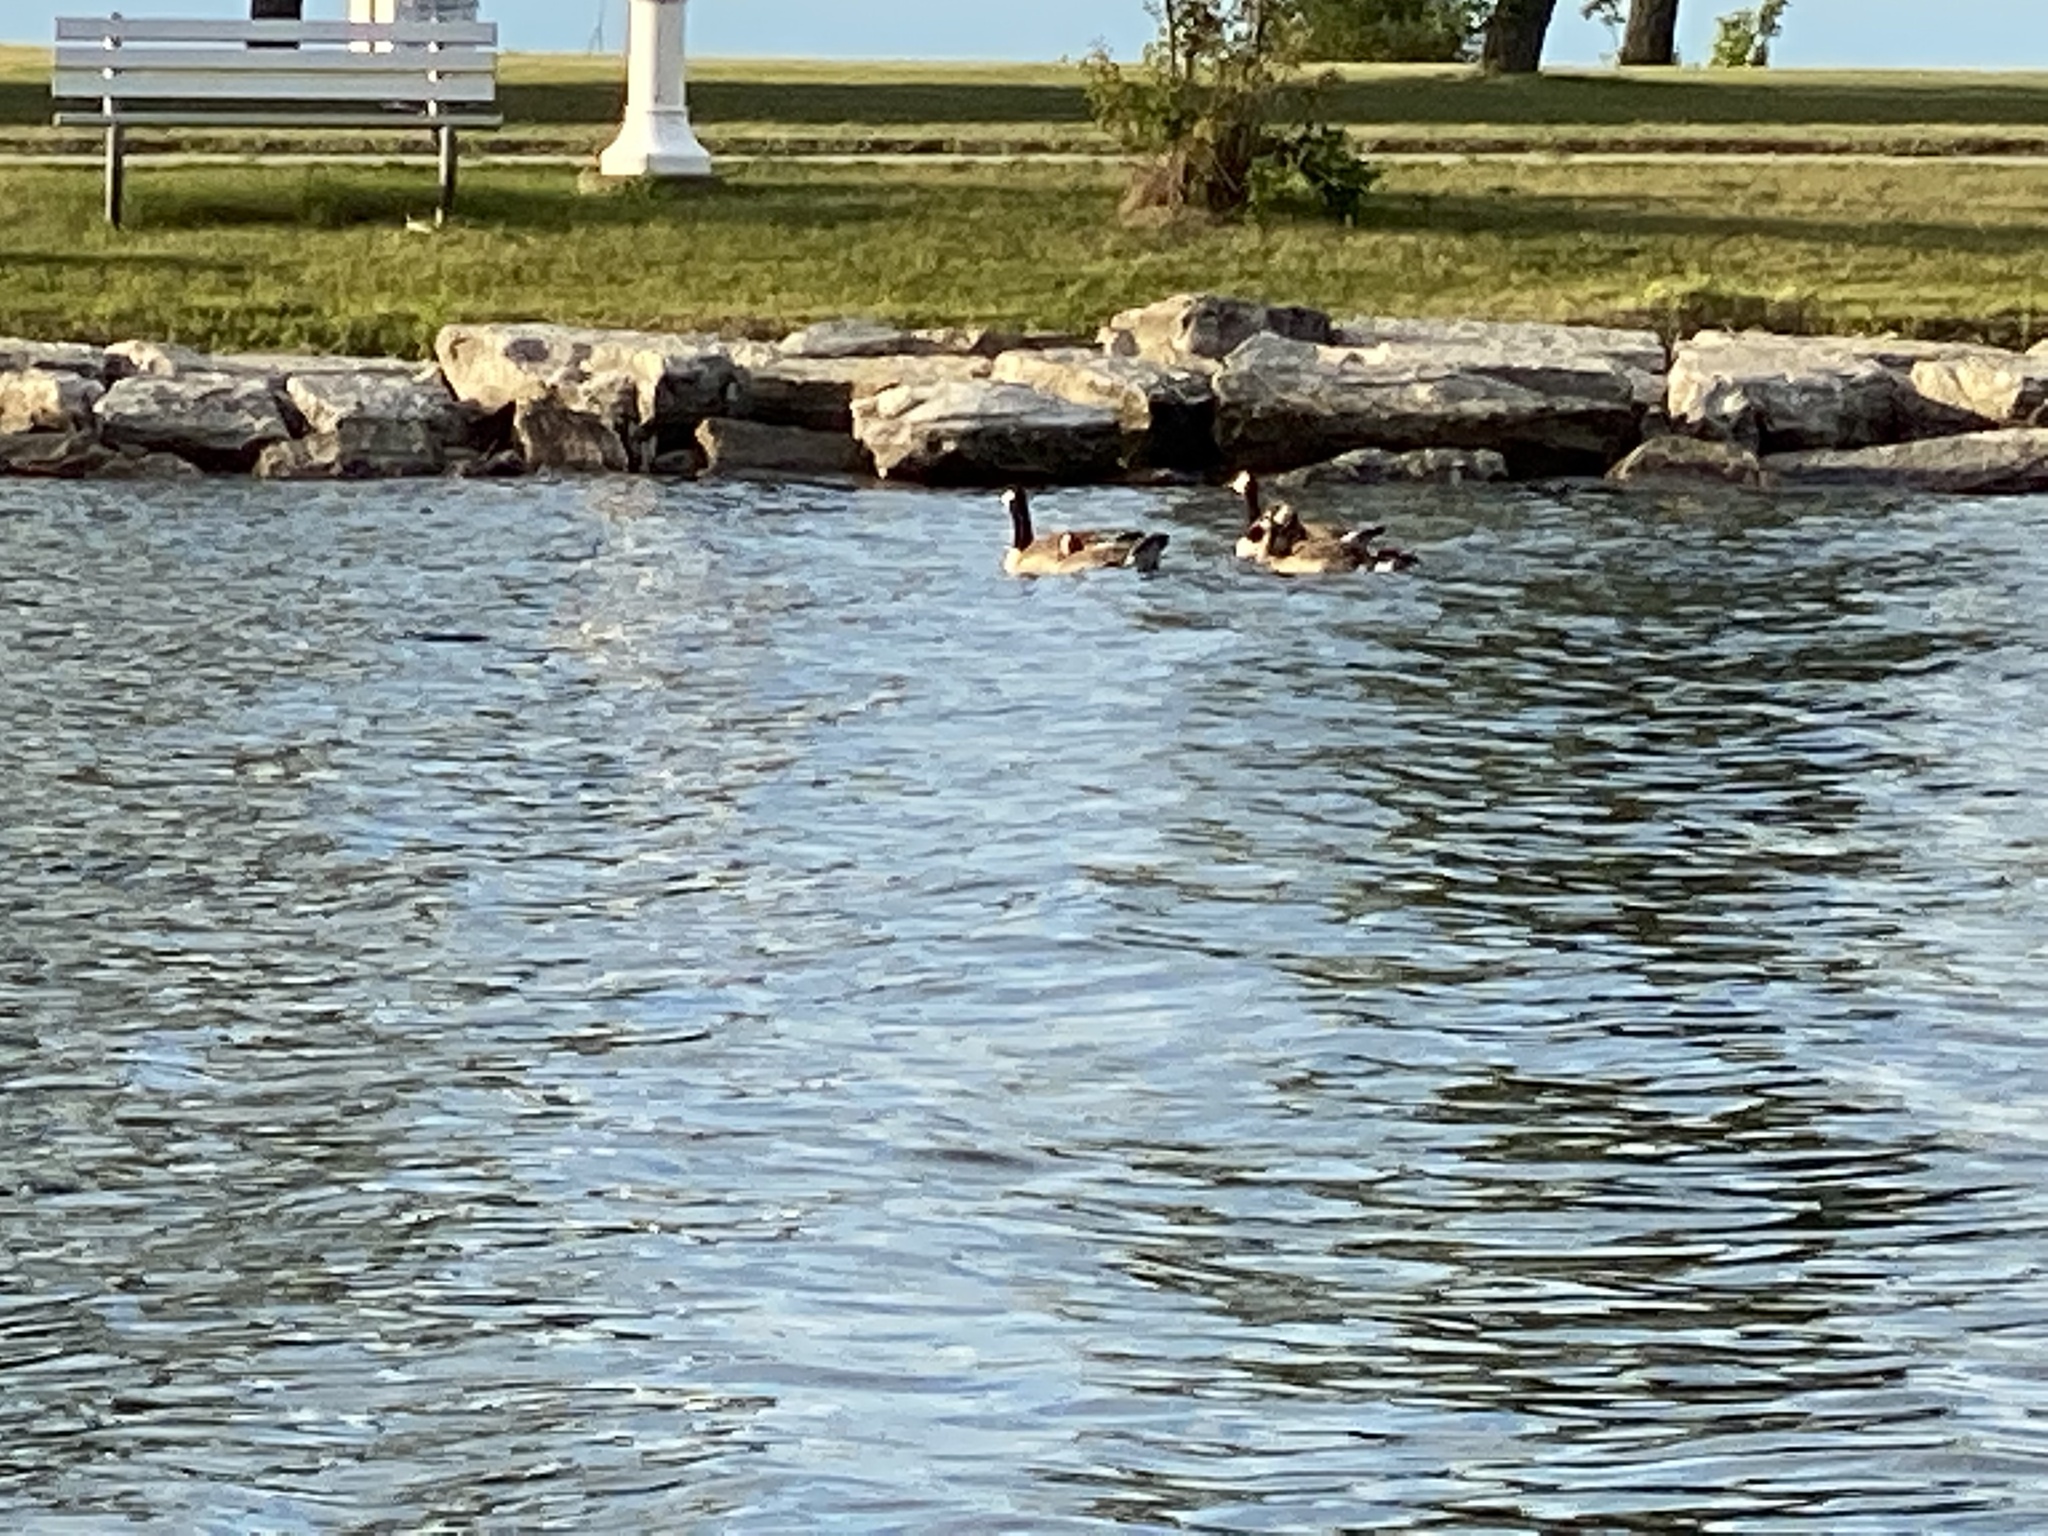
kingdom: Animalia
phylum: Chordata
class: Aves
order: Anseriformes
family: Anatidae
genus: Branta
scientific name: Branta canadensis
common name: Canada goose
